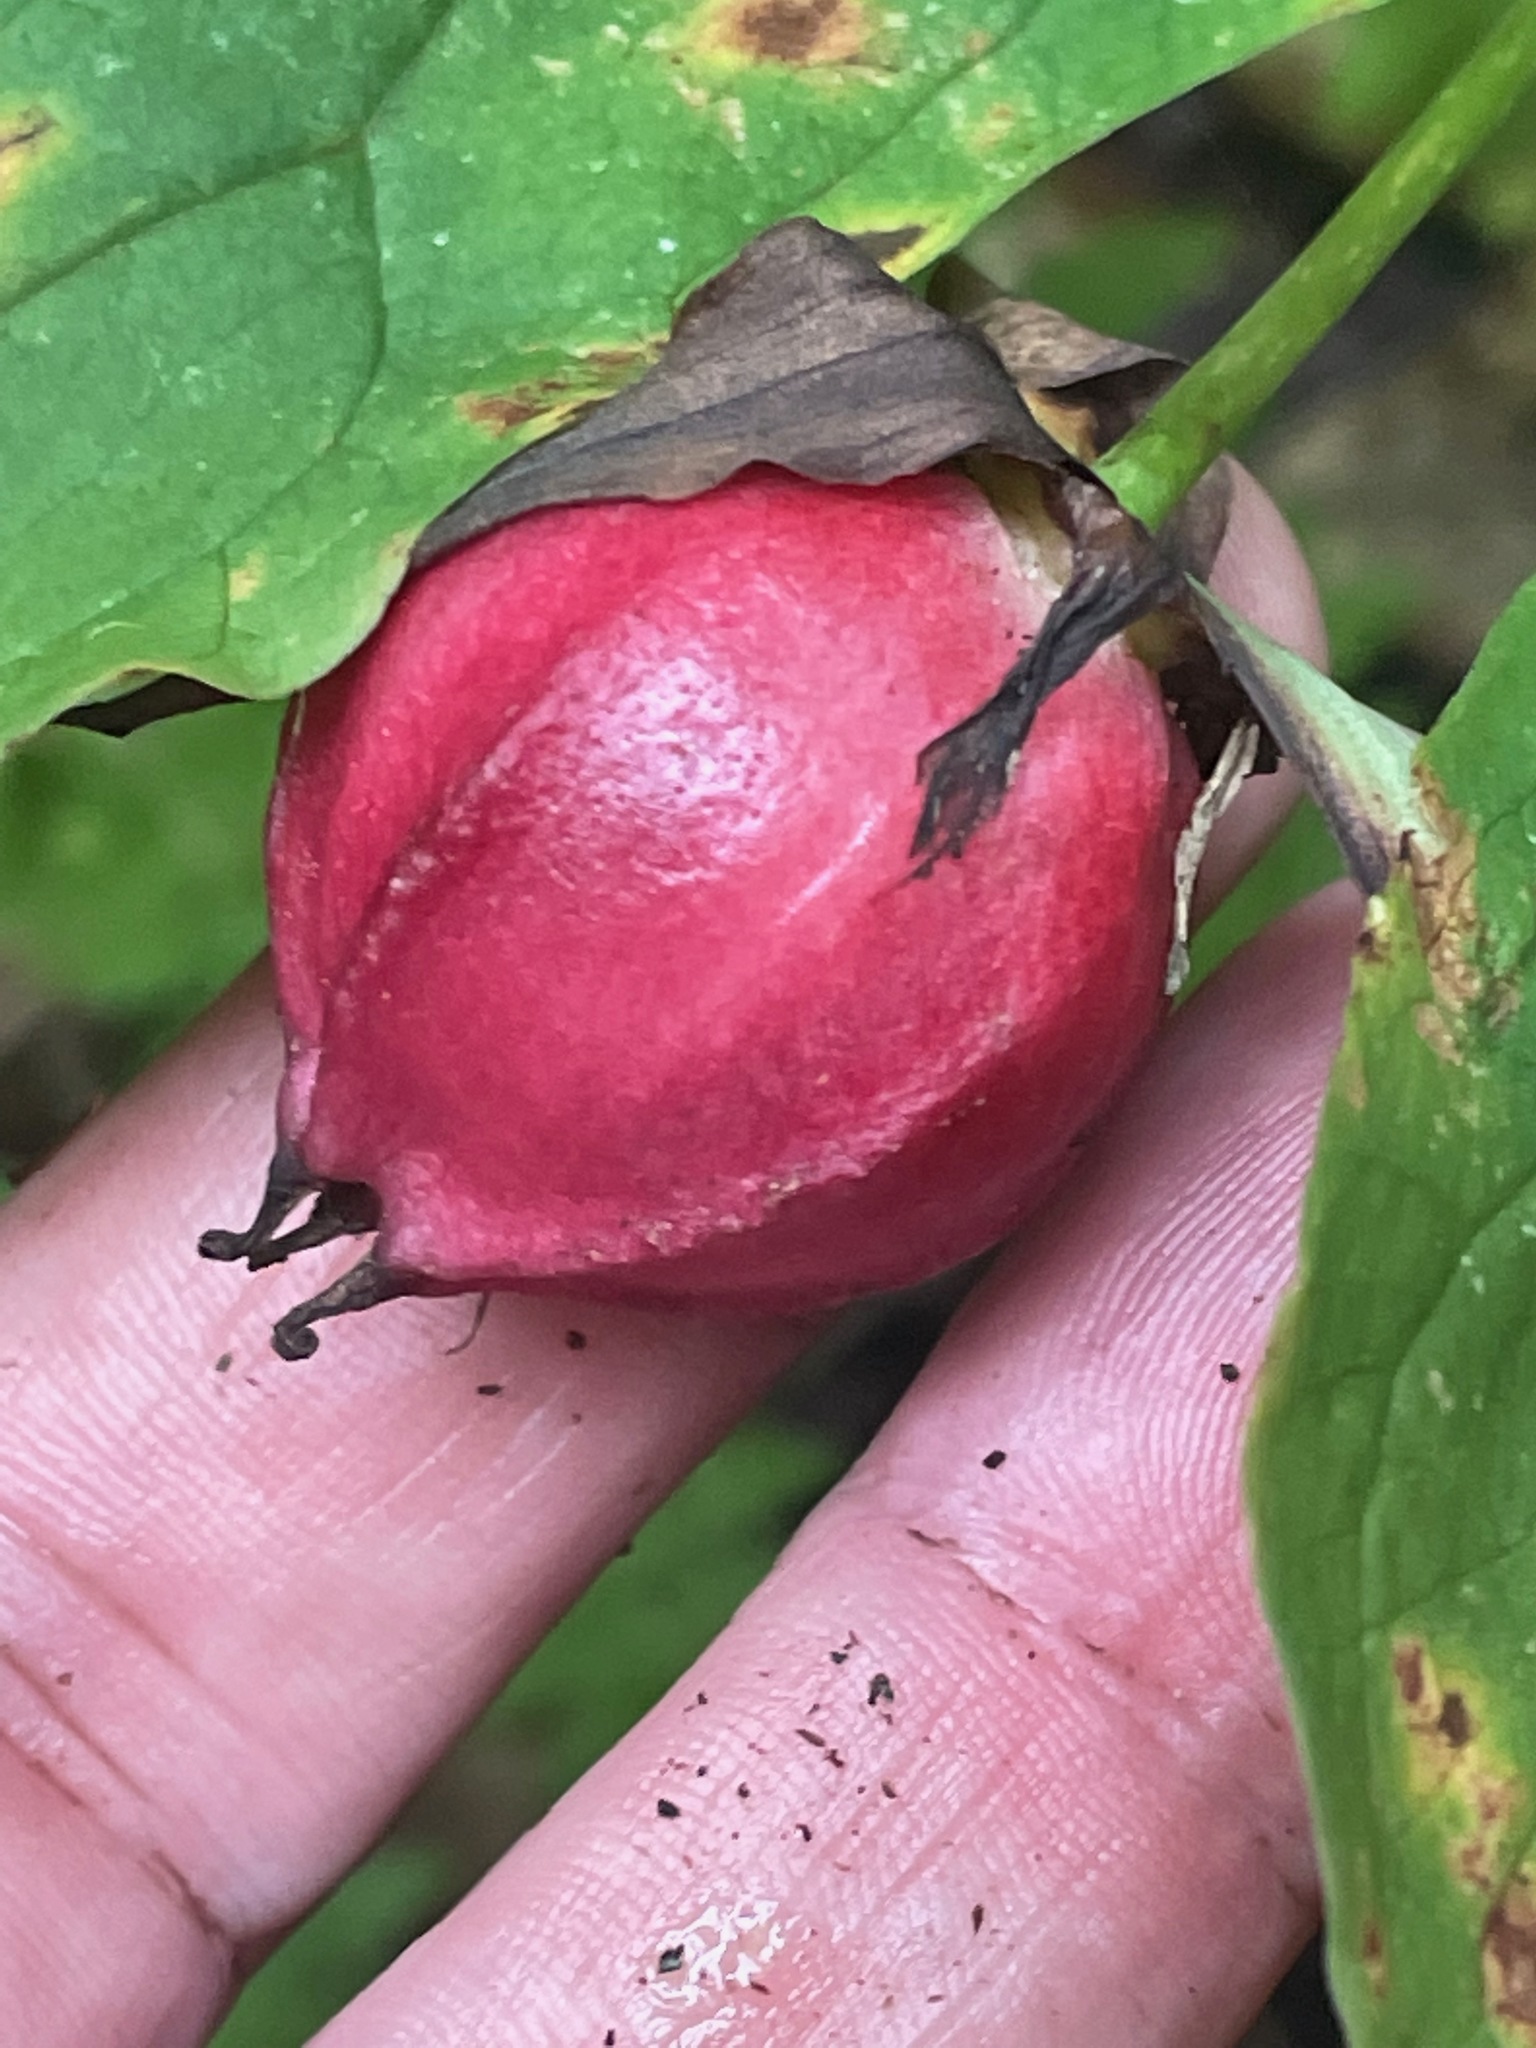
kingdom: Plantae
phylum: Tracheophyta
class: Liliopsida
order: Liliales
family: Melanthiaceae
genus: Trillium
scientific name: Trillium erectum
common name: Purple trillium
